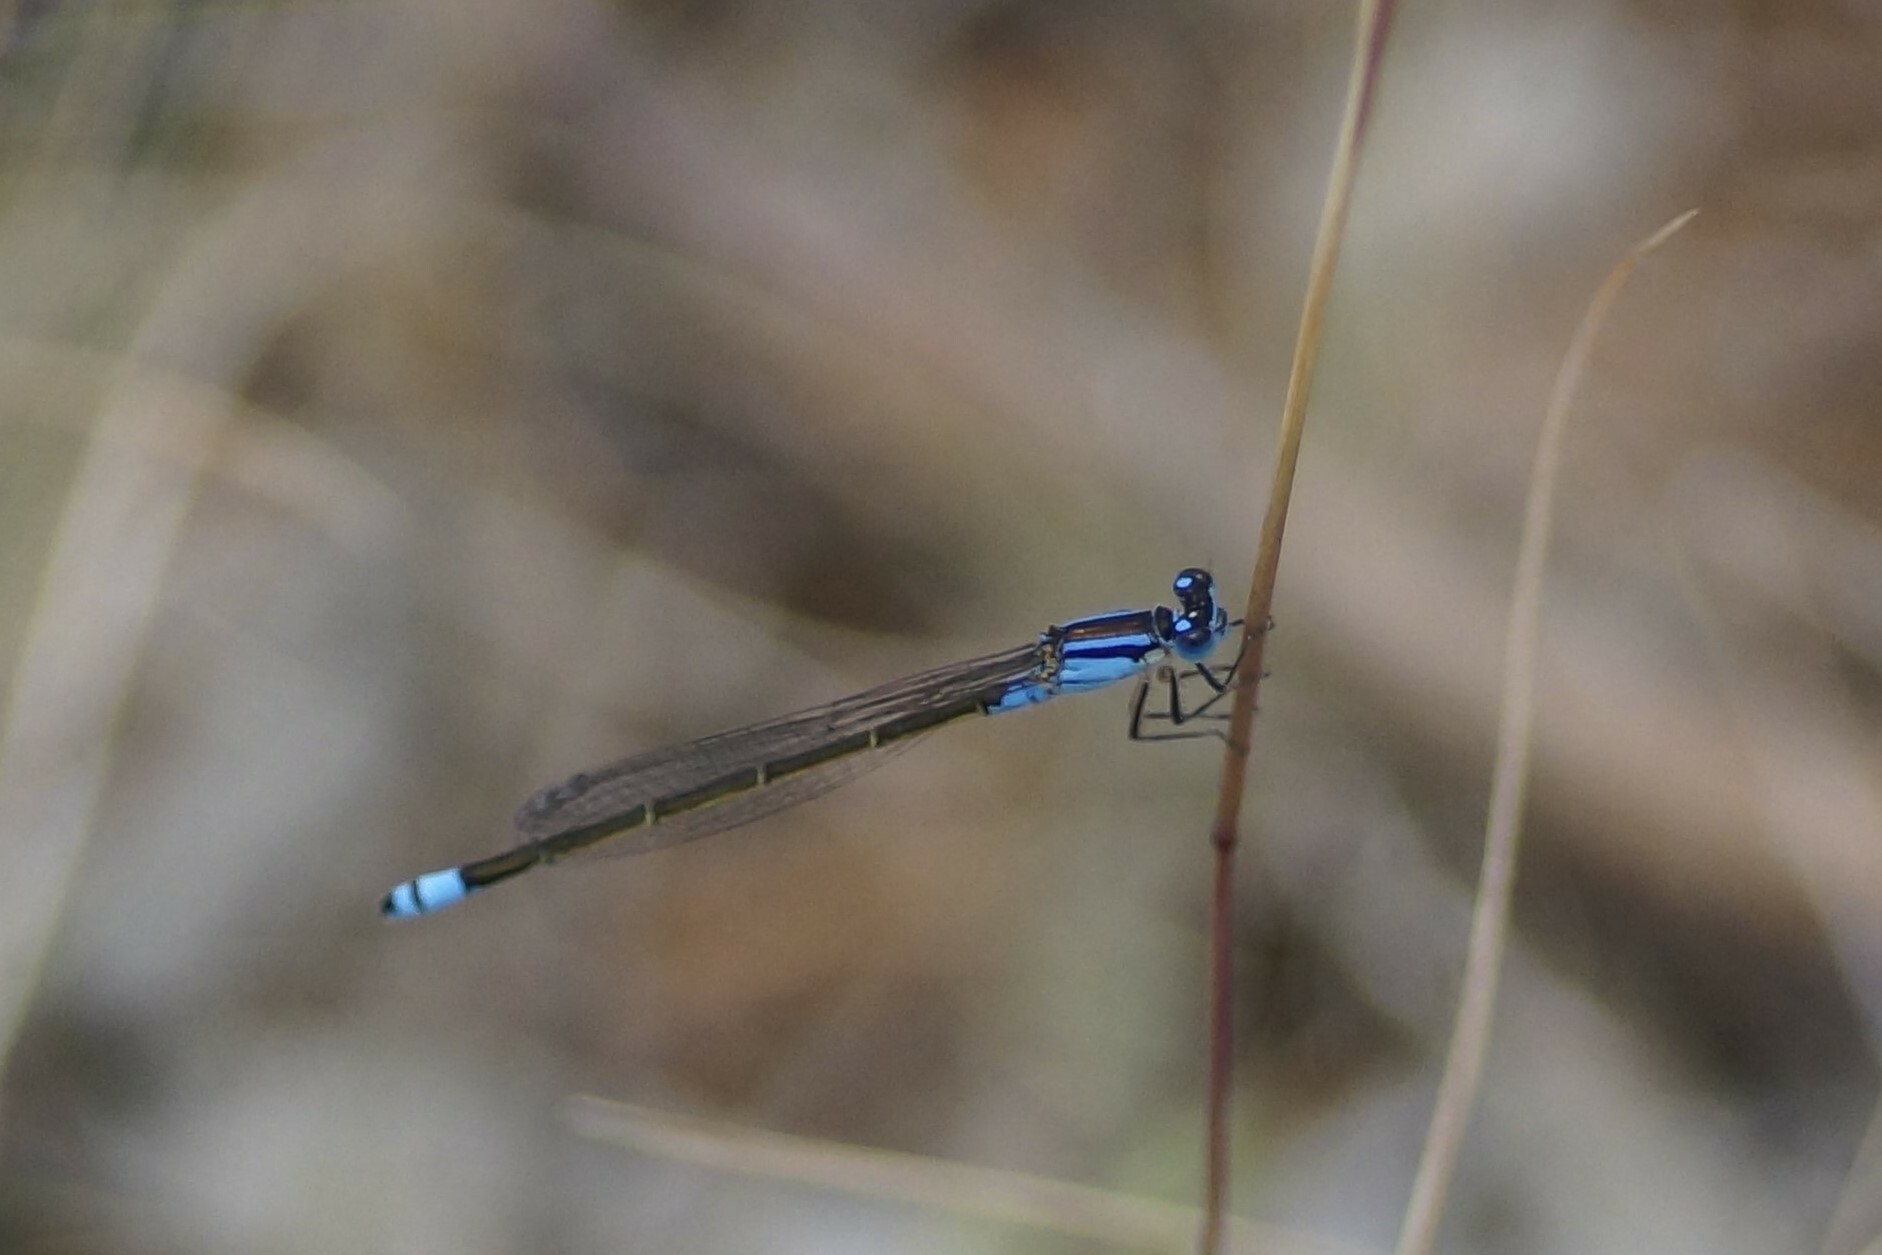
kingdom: Animalia
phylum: Arthropoda
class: Insecta
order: Odonata
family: Coenagrionidae
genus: Ischnura
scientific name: Ischnura heterosticta
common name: Common bluetail
